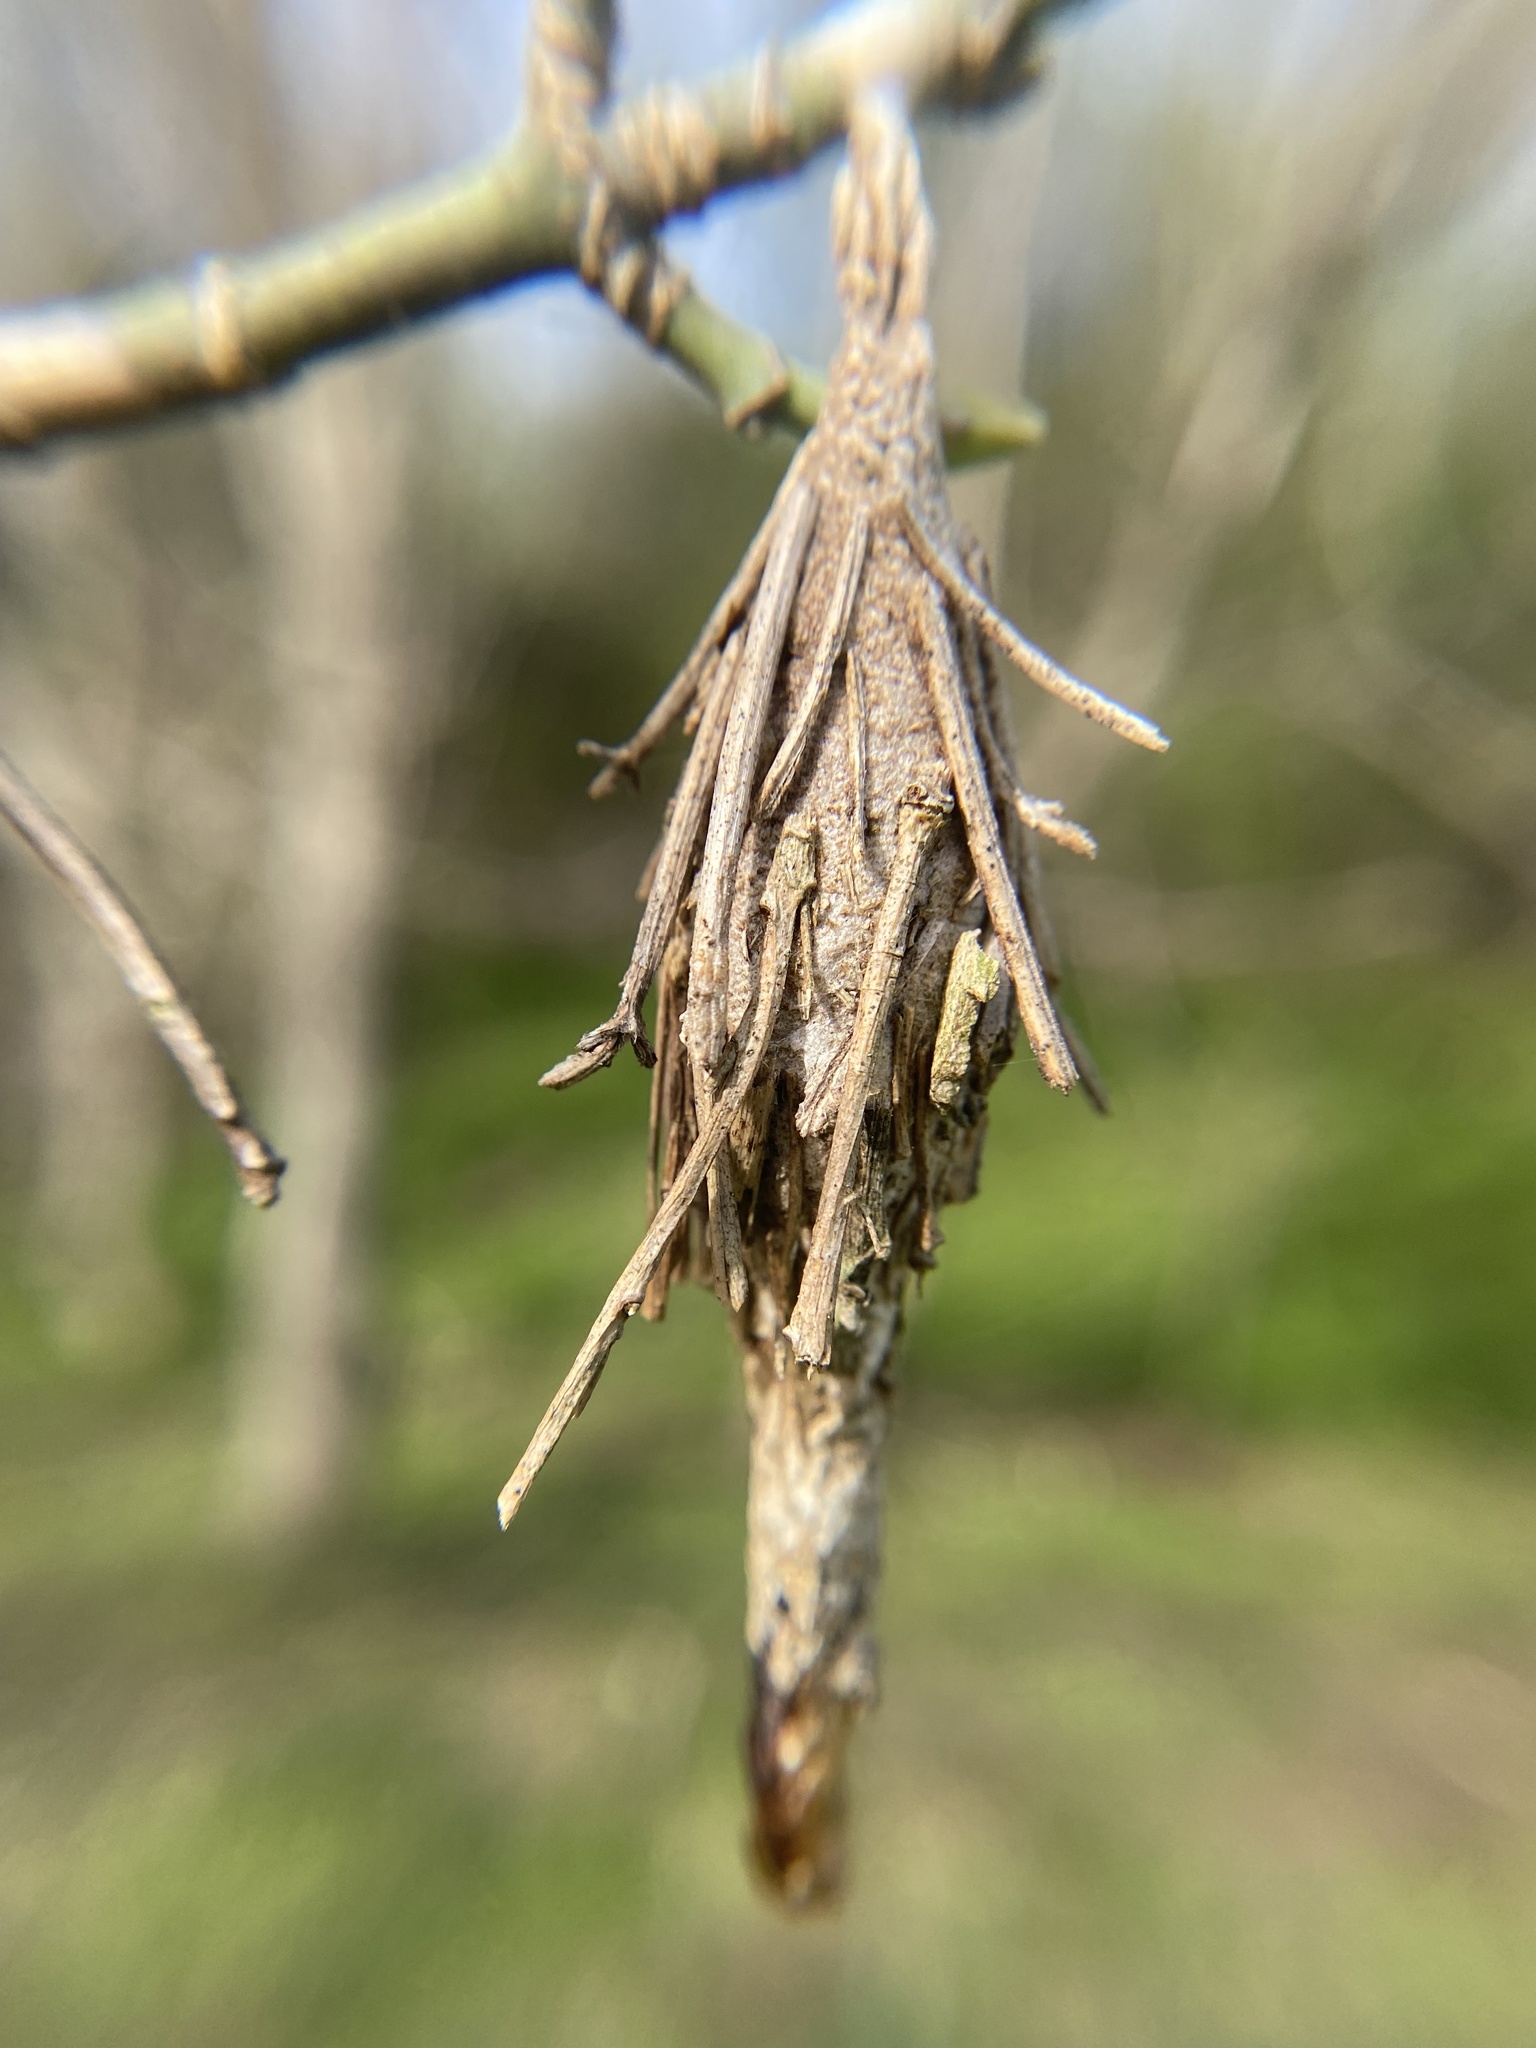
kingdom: Animalia
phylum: Arthropoda
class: Insecta
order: Lepidoptera
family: Psychidae
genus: Thyridopteryx
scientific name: Thyridopteryx ephemeraeformis
